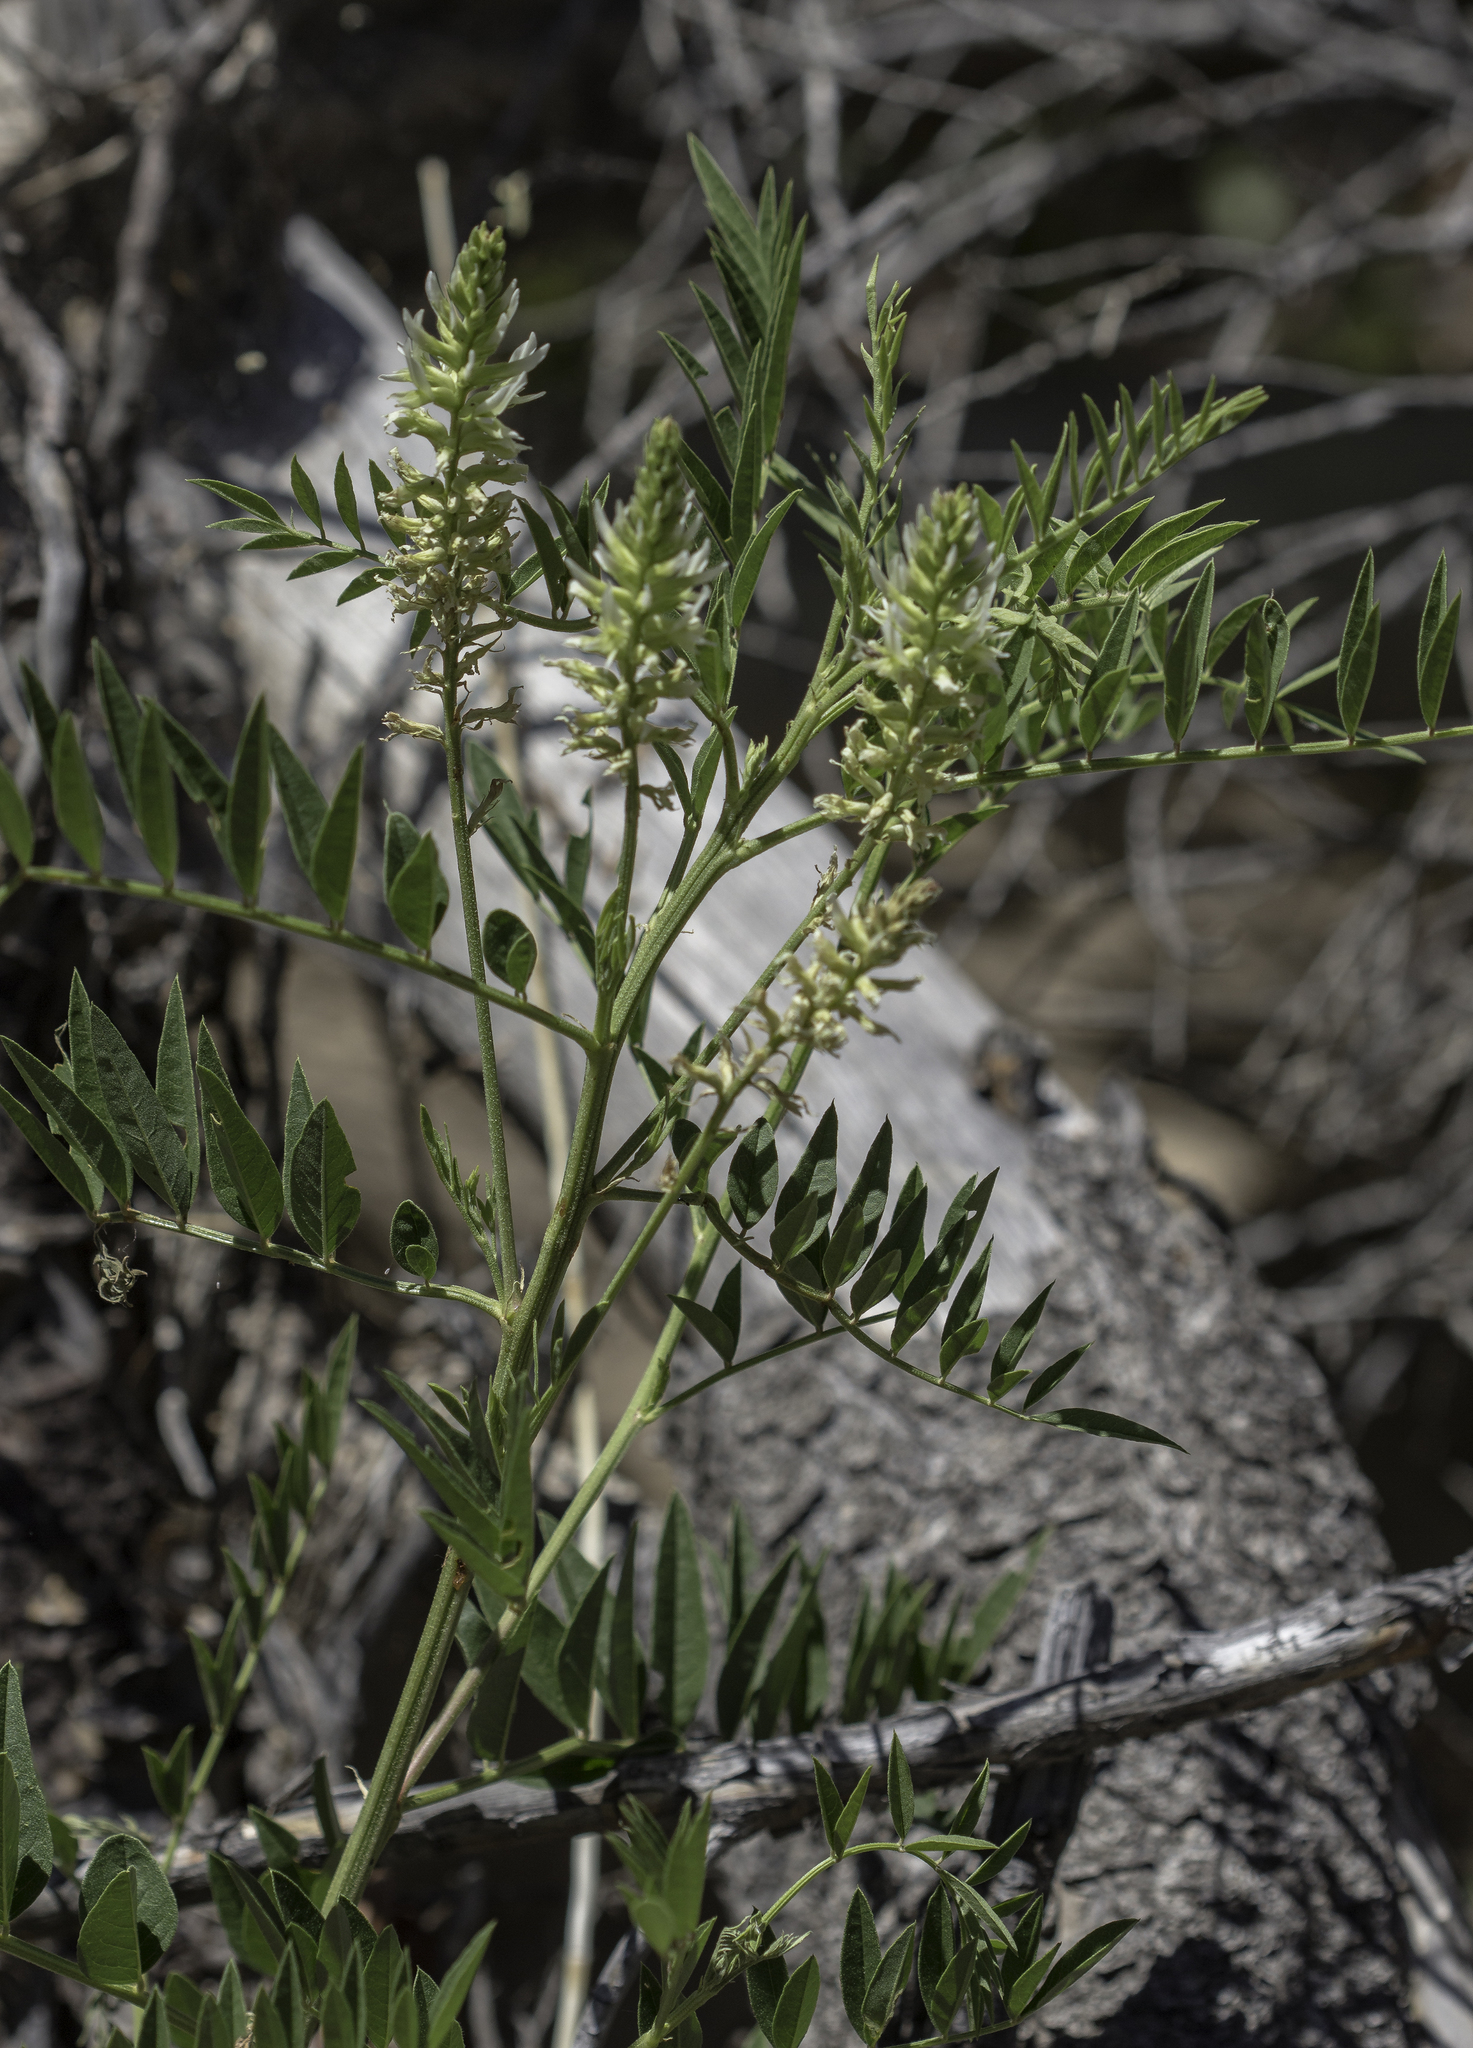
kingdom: Plantae
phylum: Tracheophyta
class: Magnoliopsida
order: Fabales
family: Fabaceae
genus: Glycyrrhiza
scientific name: Glycyrrhiza lepidota
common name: American liquorice
